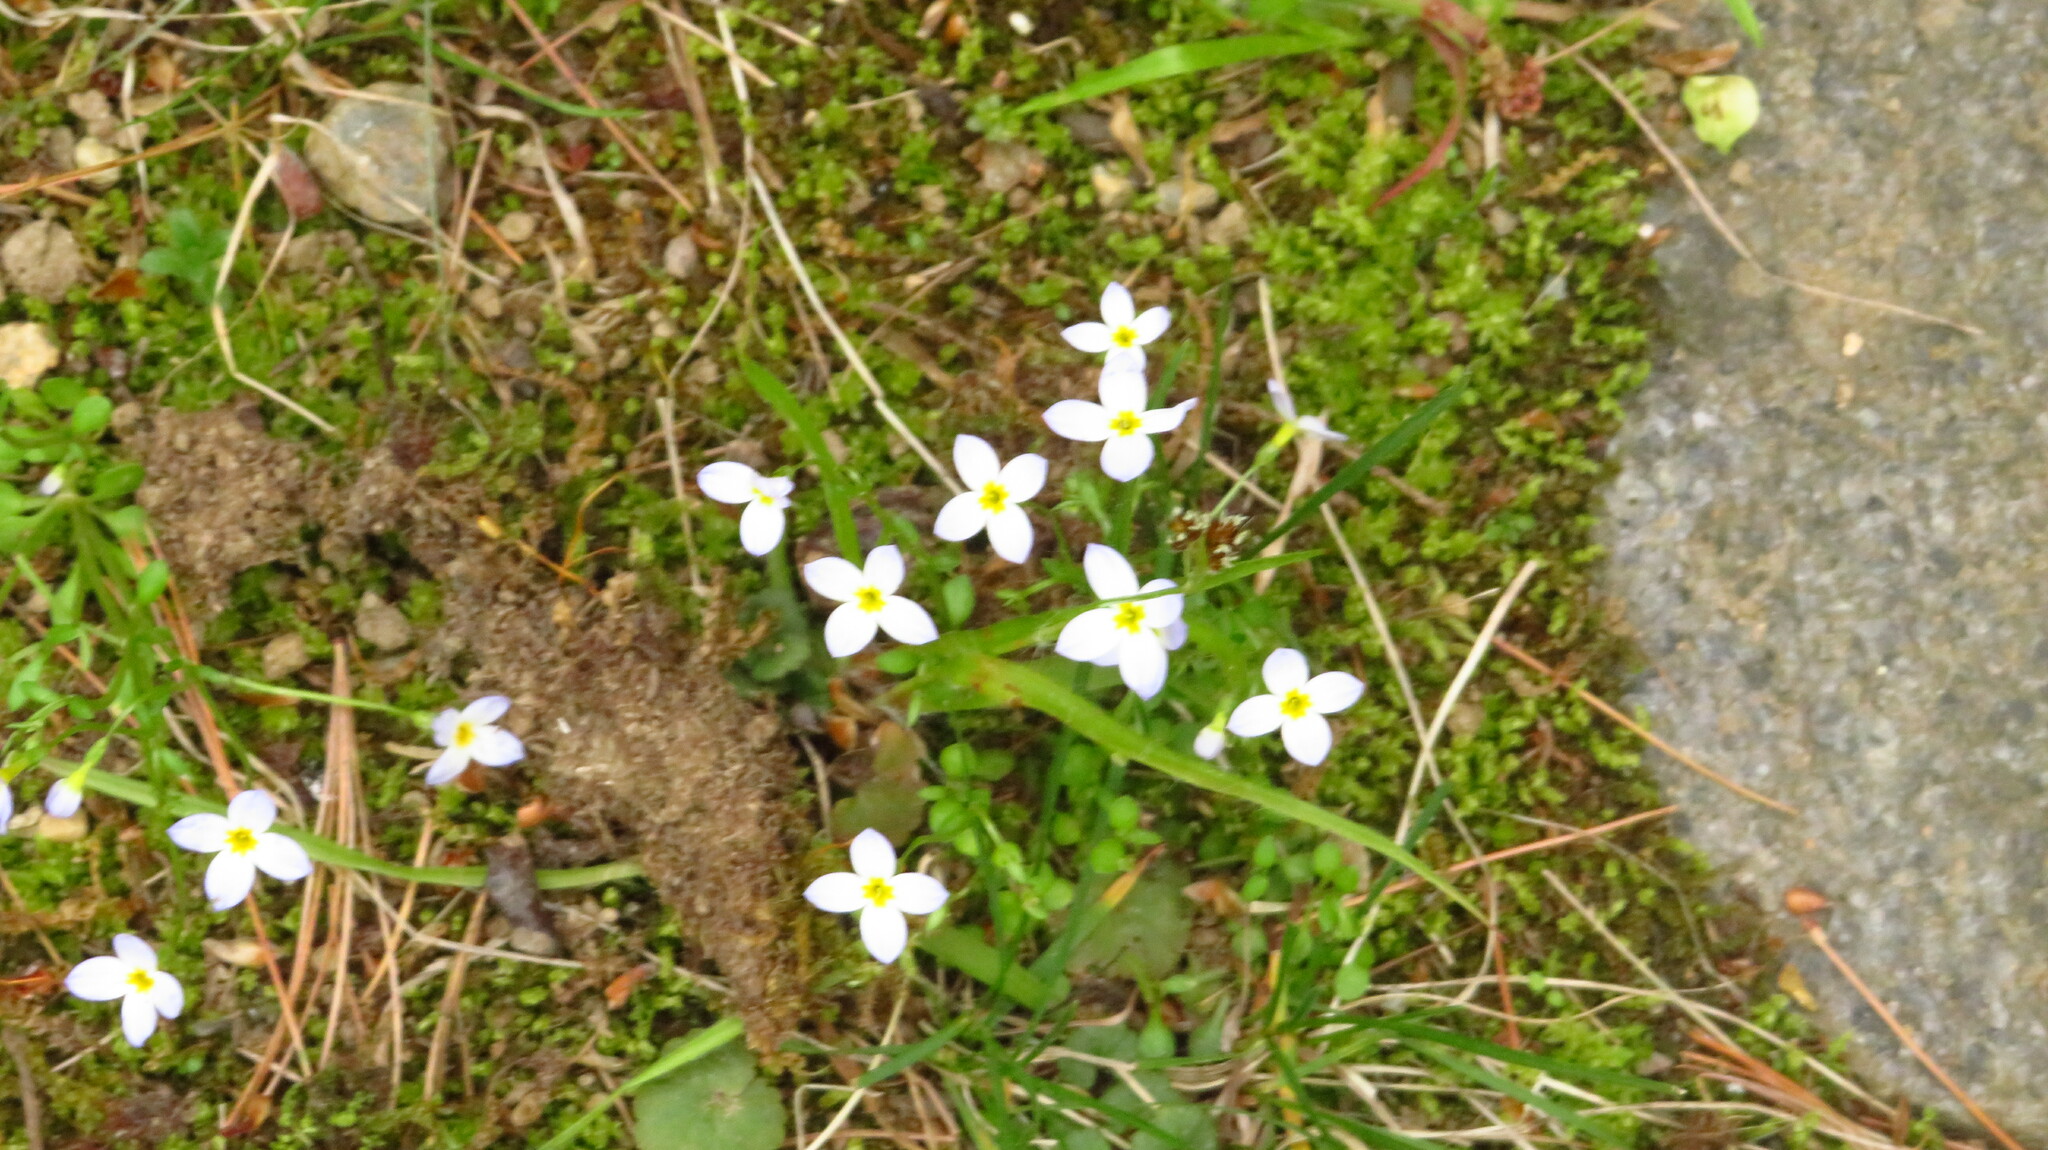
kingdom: Plantae
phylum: Tracheophyta
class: Magnoliopsida
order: Gentianales
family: Rubiaceae
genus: Houstonia
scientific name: Houstonia caerulea
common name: Bluets
